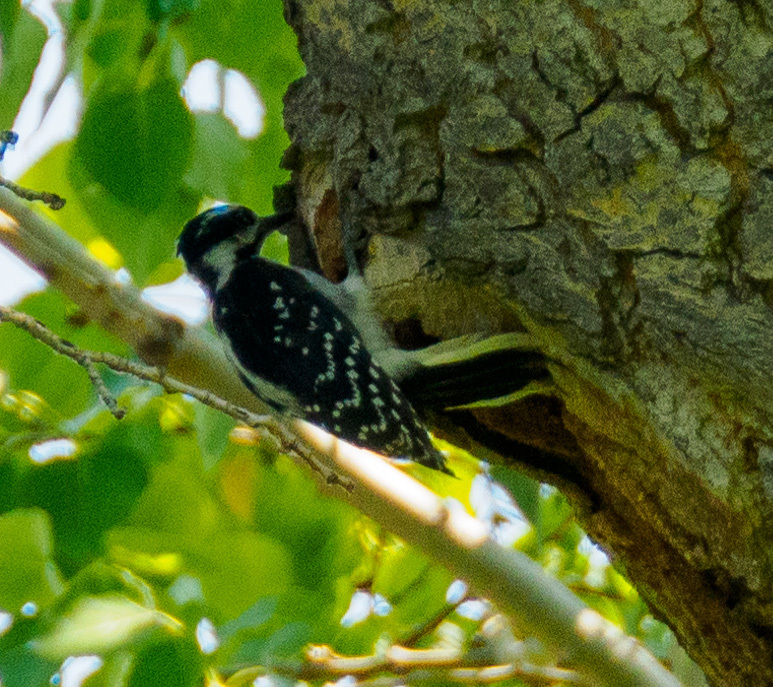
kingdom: Animalia
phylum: Chordata
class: Aves
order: Piciformes
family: Picidae
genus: Leuconotopicus
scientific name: Leuconotopicus villosus
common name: Hairy woodpecker
